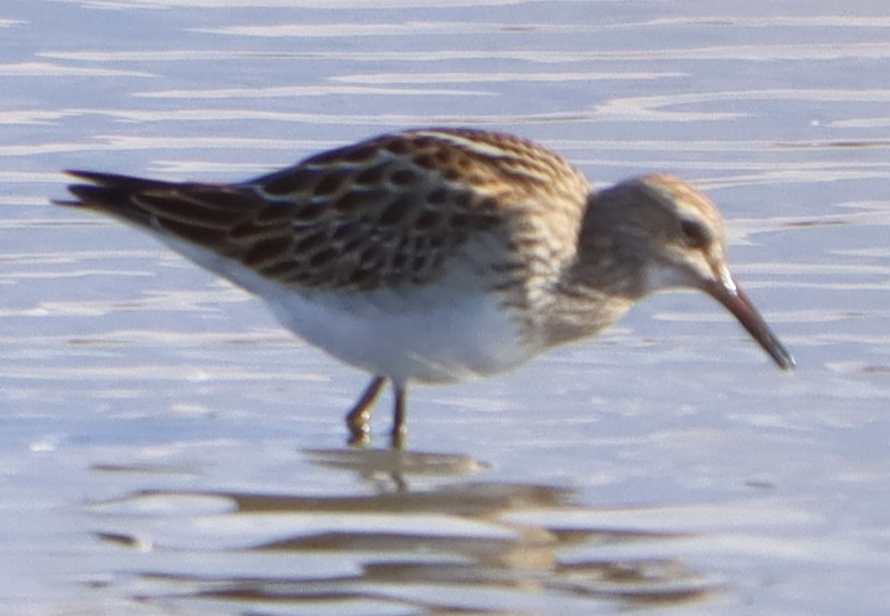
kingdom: Animalia
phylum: Chordata
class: Aves
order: Charadriiformes
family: Scolopacidae
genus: Calidris
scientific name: Calidris melanotos
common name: Pectoral sandpiper
